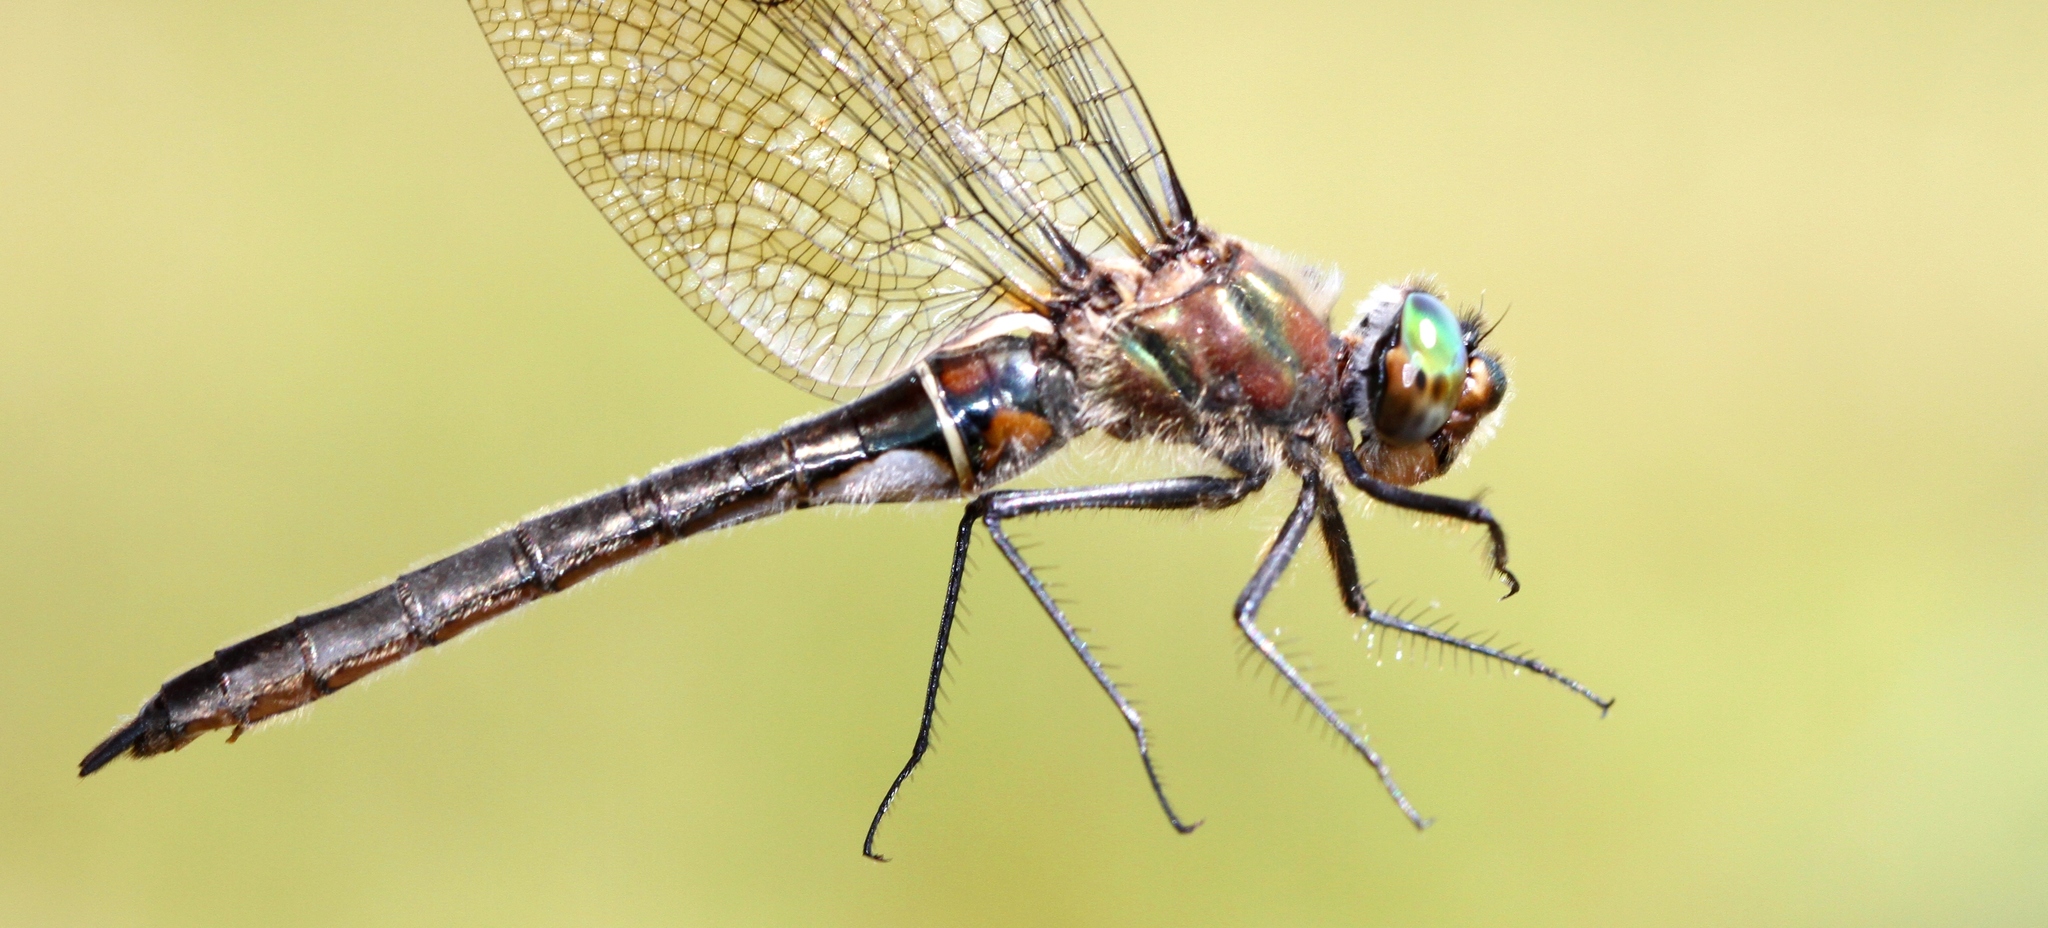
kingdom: Animalia
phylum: Arthropoda
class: Insecta
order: Odonata
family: Corduliidae
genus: Cordulia
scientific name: Cordulia shurtleffii
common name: American emerald
